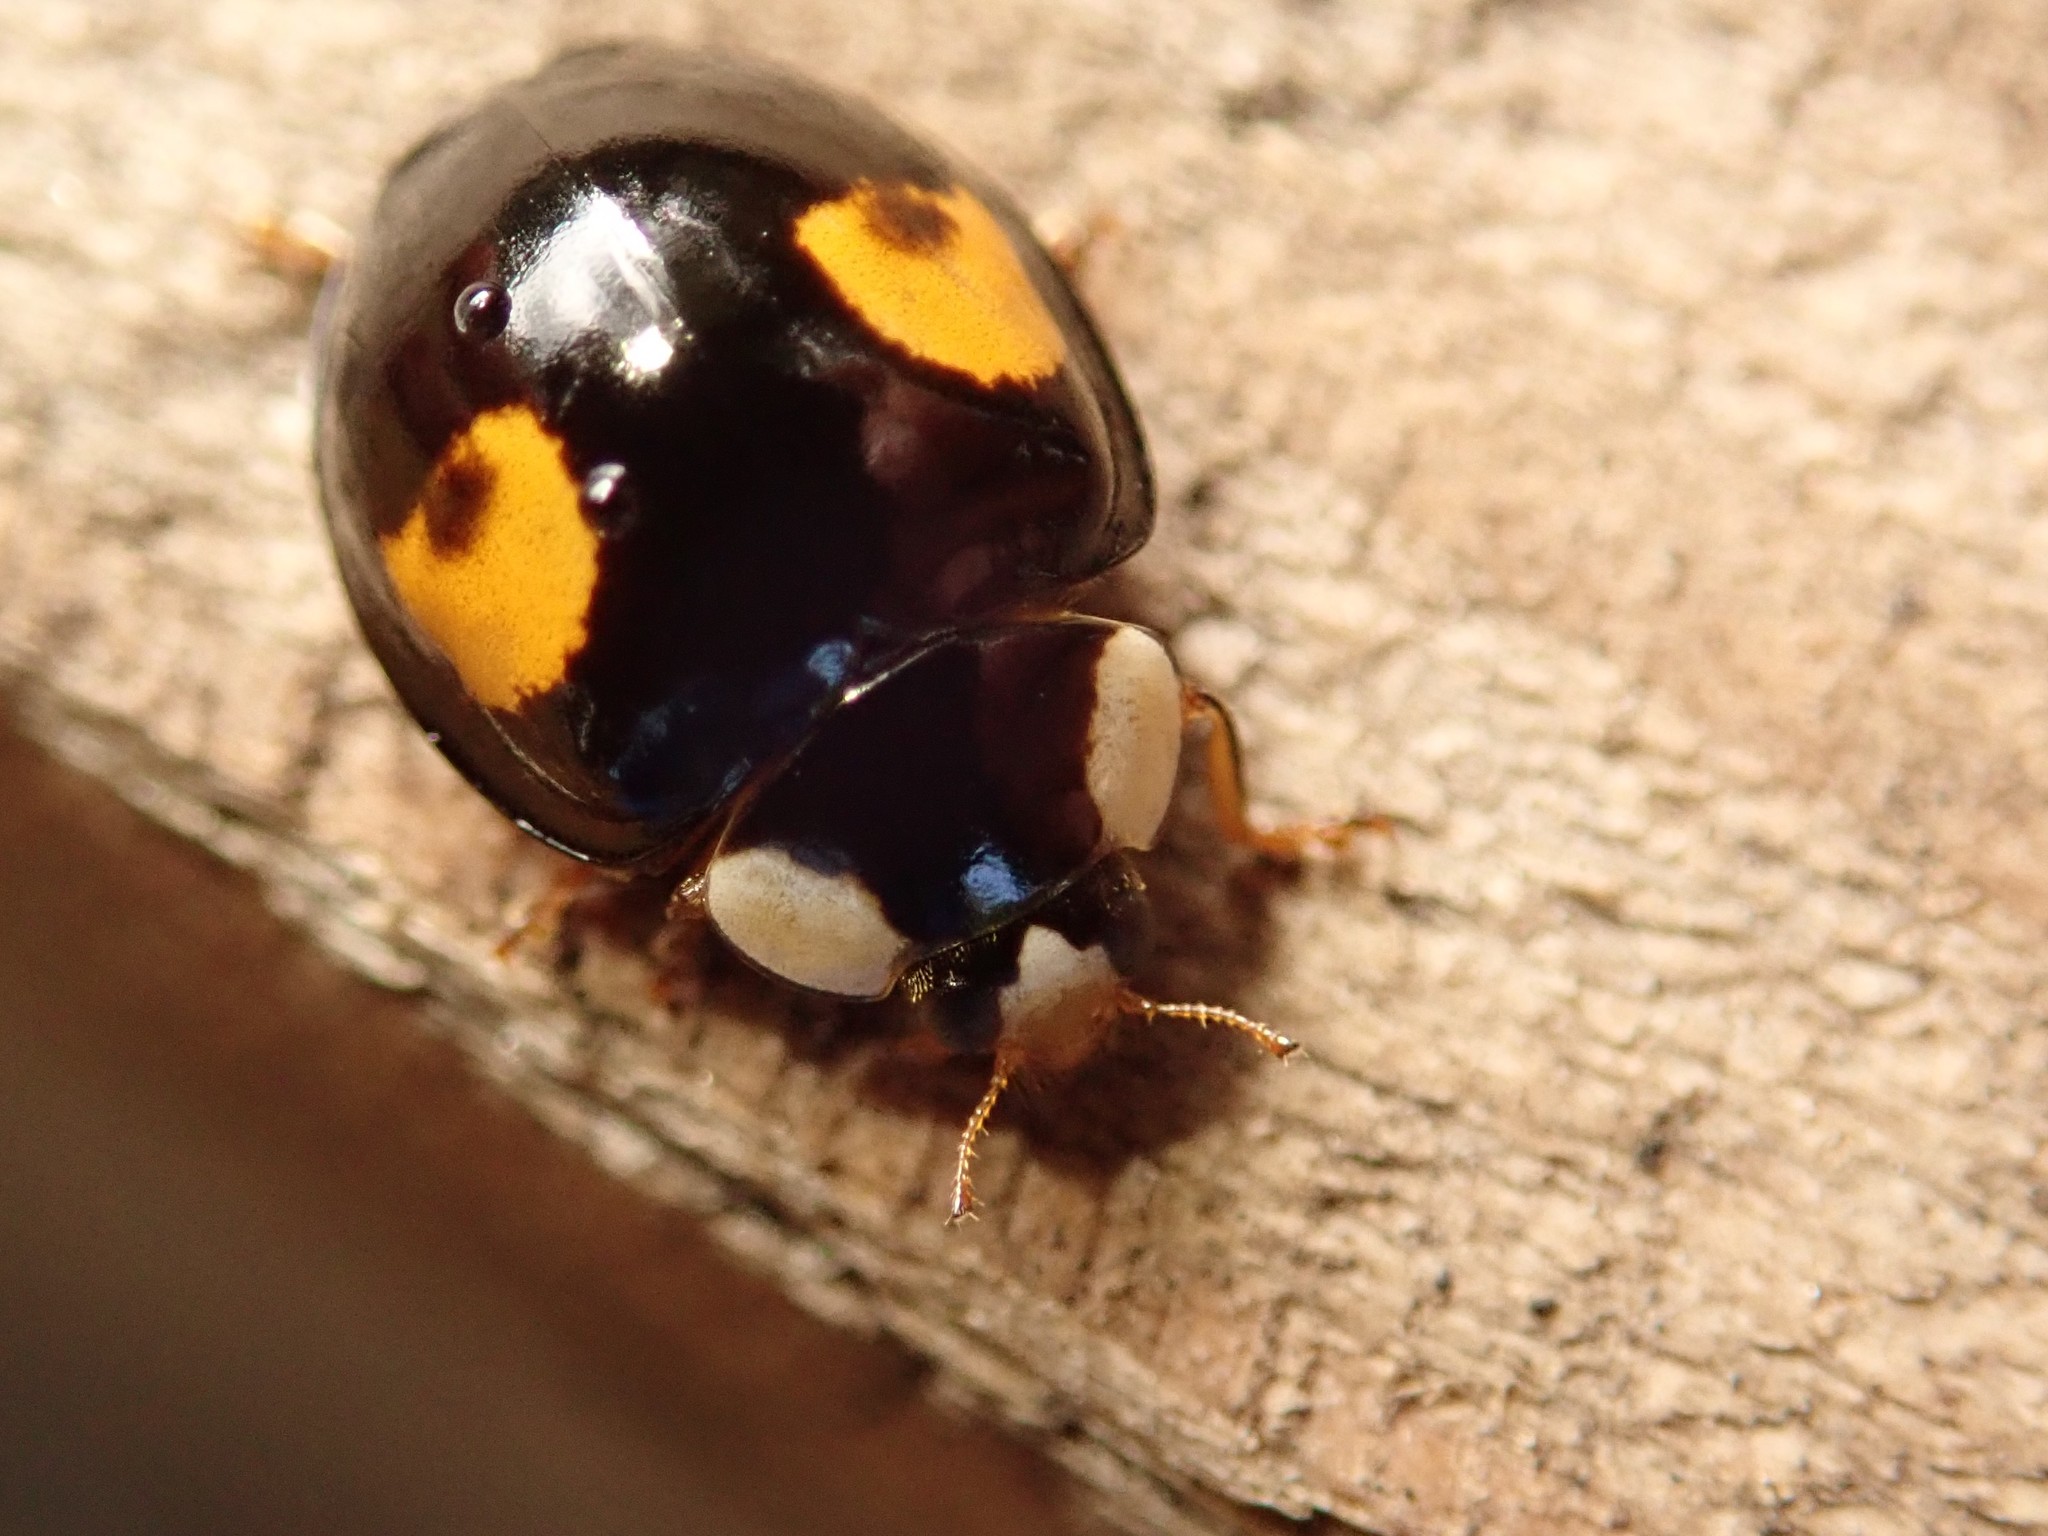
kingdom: Animalia
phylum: Arthropoda
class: Insecta
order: Coleoptera
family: Coccinellidae
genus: Harmonia
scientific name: Harmonia axyridis
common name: Harlequin ladybird
